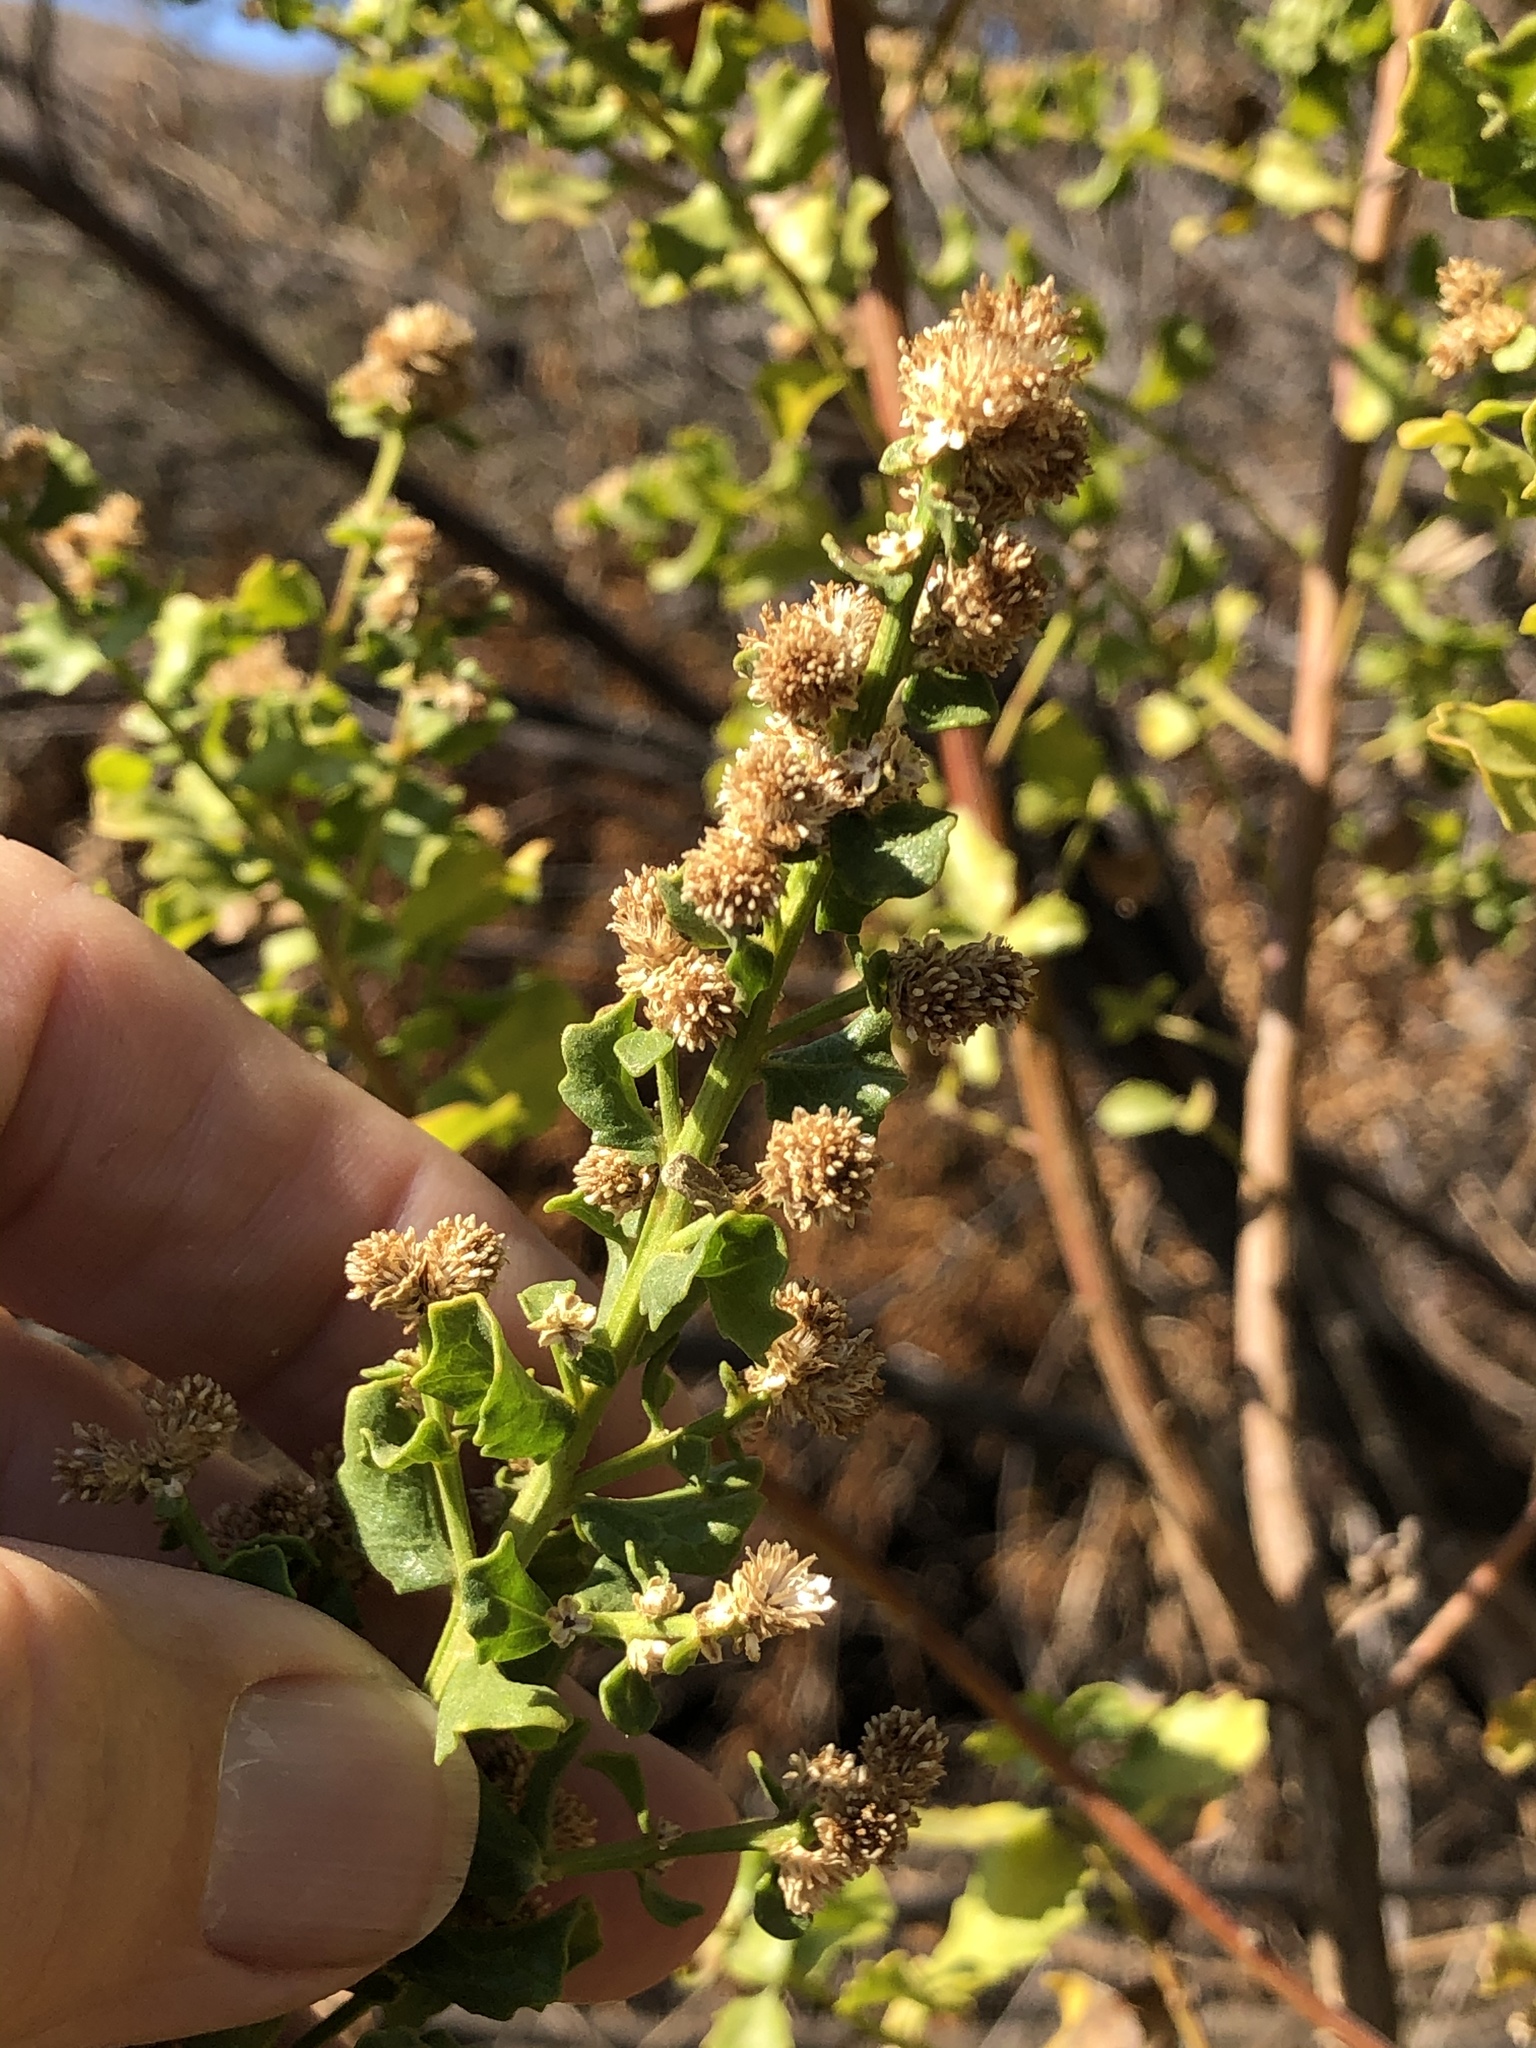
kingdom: Plantae
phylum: Tracheophyta
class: Magnoliopsida
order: Asterales
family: Asteraceae
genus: Baccharis
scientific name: Baccharis pilularis
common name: Coyotebrush
